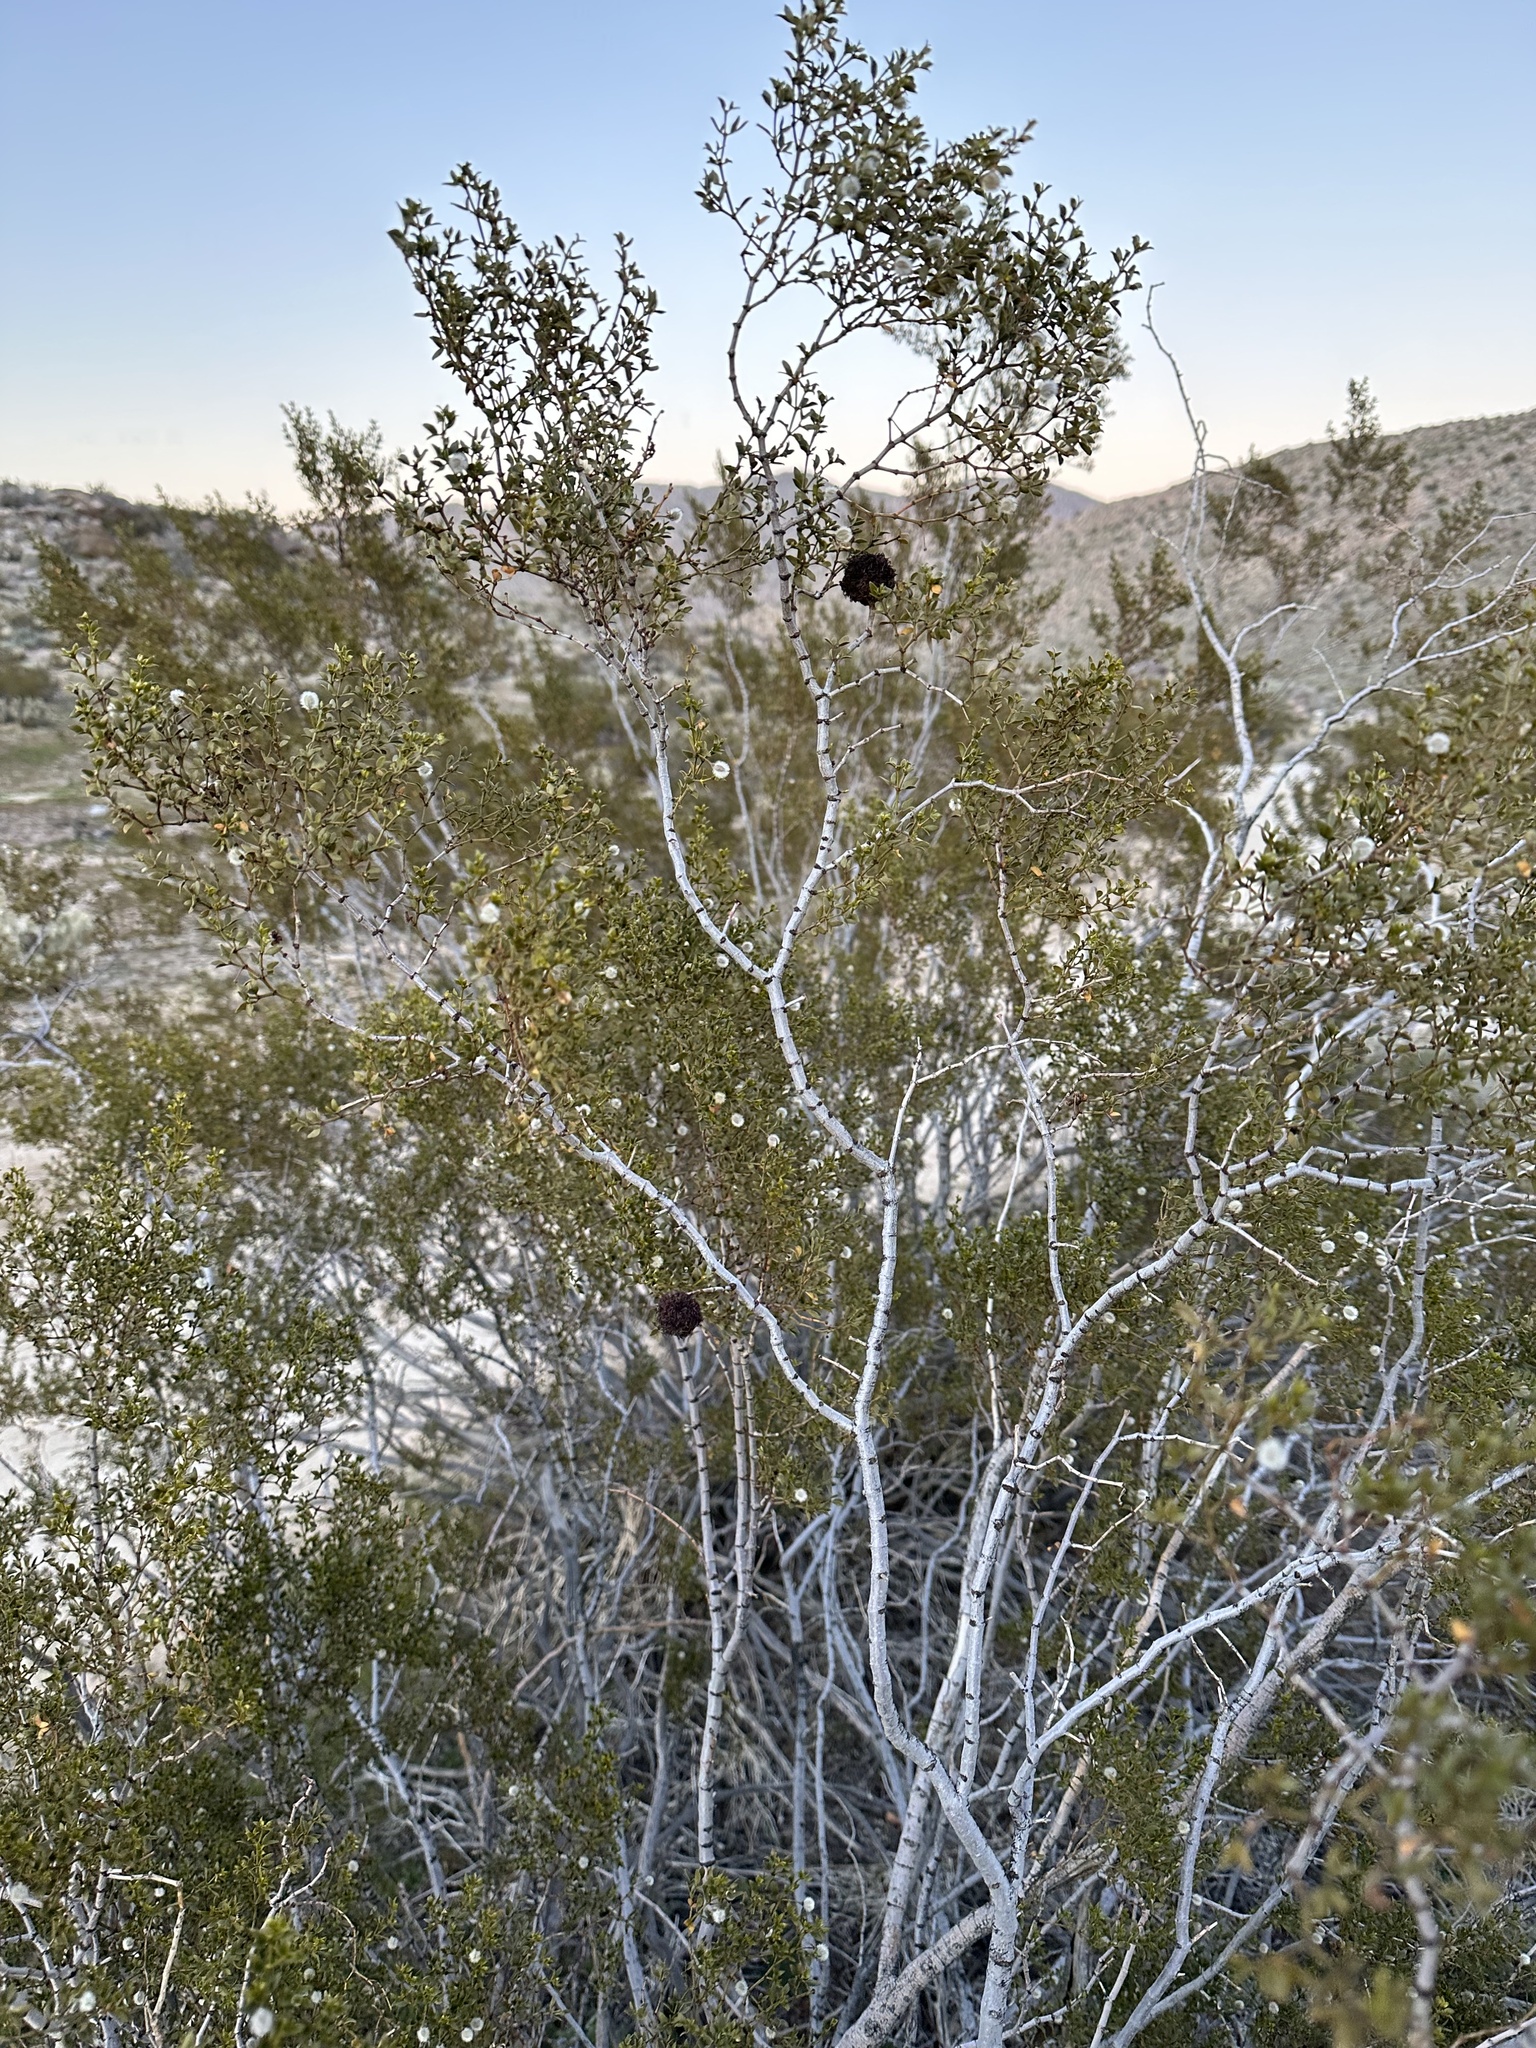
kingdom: Animalia
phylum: Arthropoda
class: Insecta
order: Diptera
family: Cecidomyiidae
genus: Asphondylia
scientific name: Asphondylia auripila
